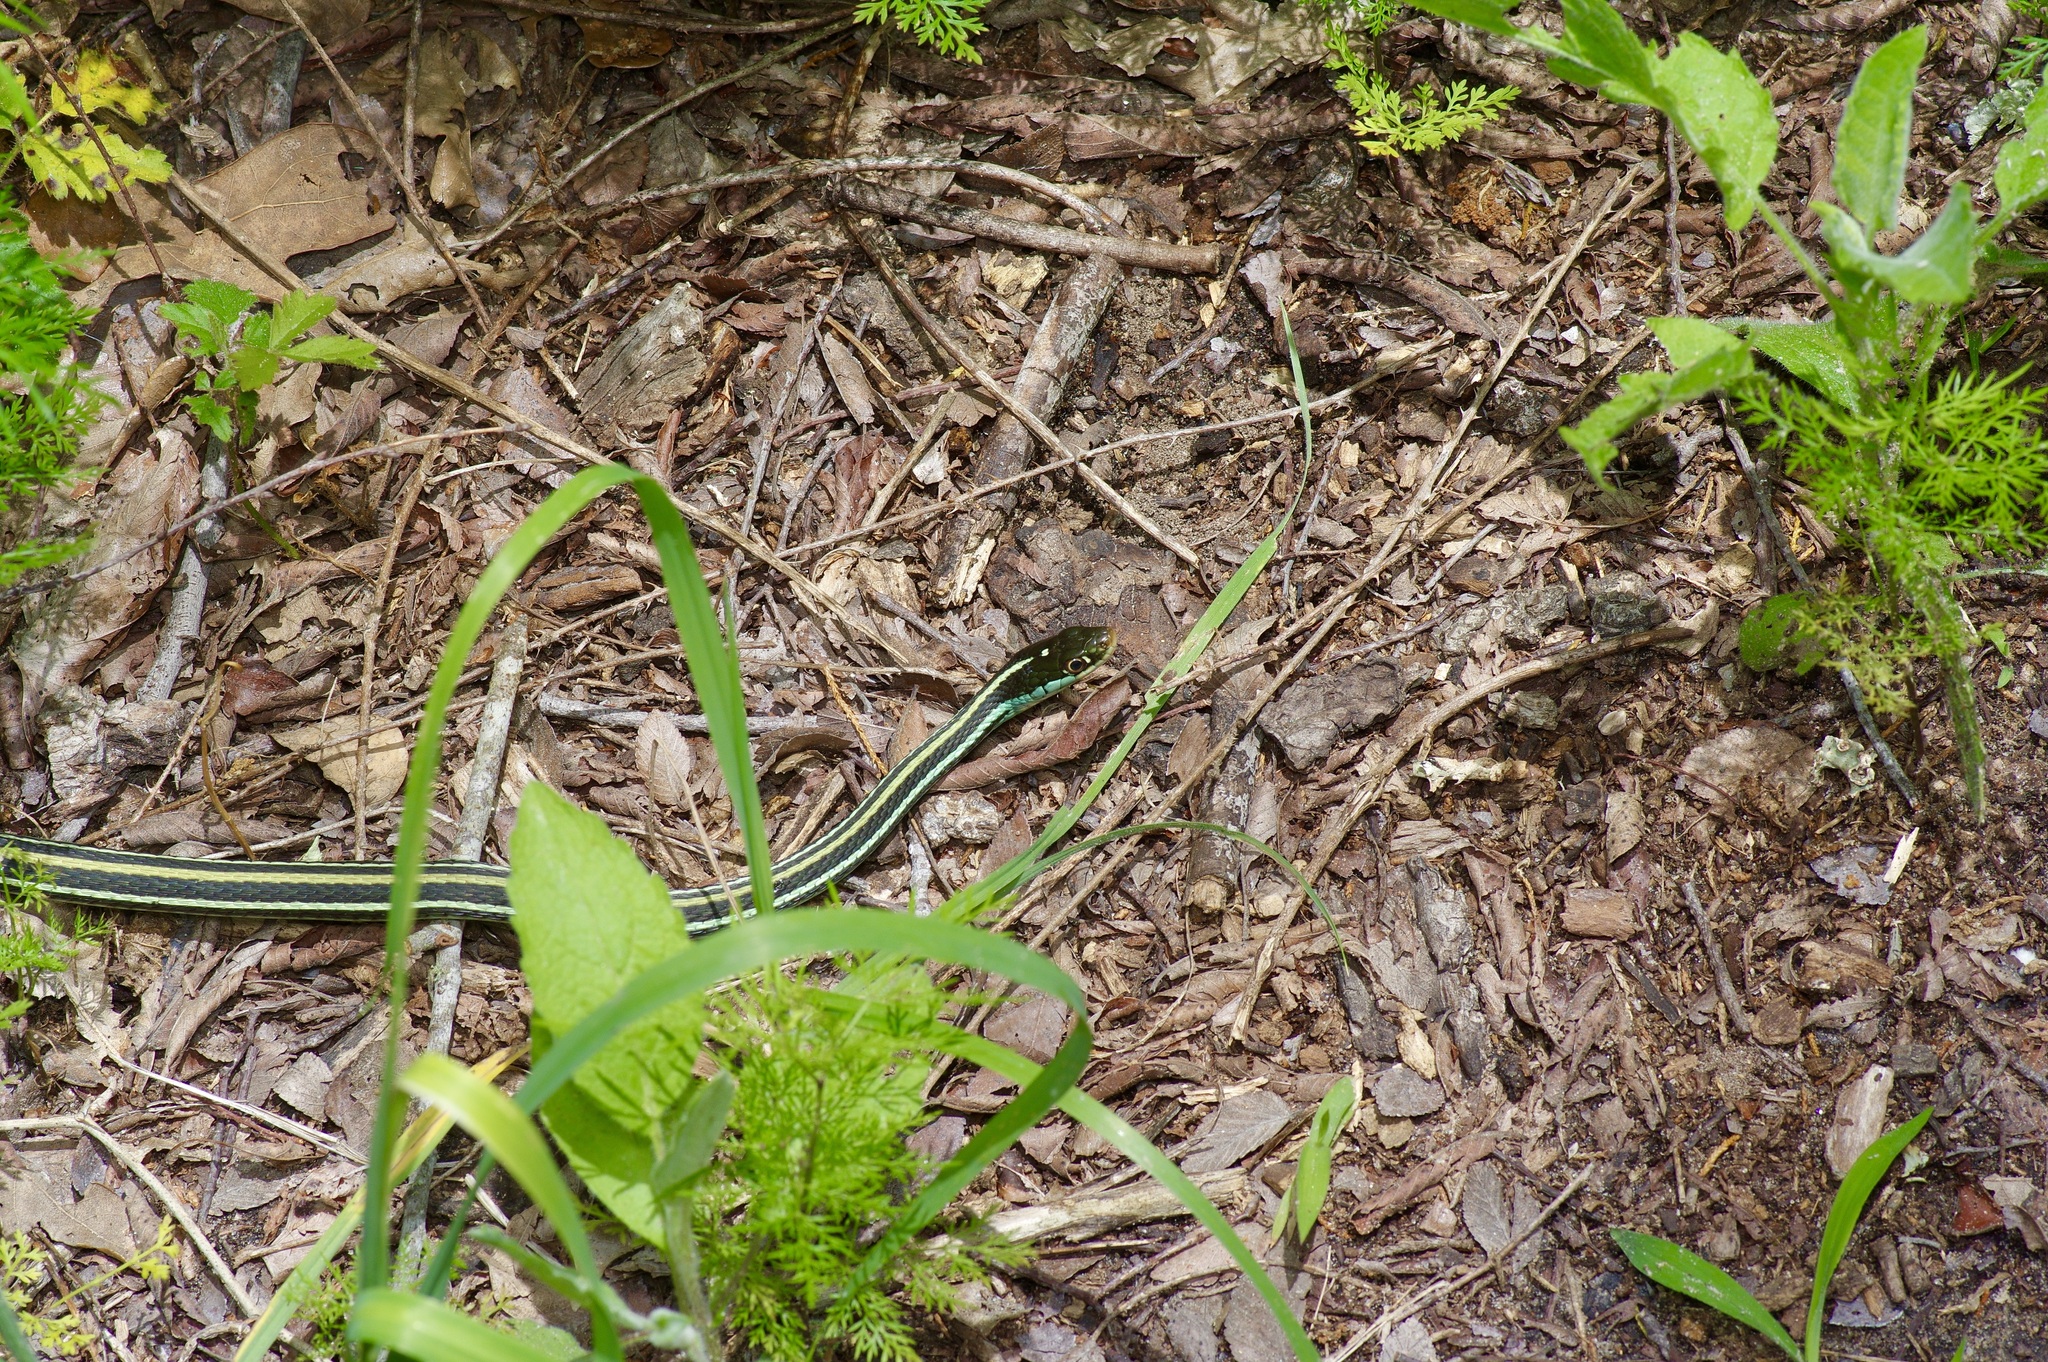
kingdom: Animalia
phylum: Chordata
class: Squamata
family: Colubridae
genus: Thamnophis
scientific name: Thamnophis proximus
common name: Western ribbon snake
